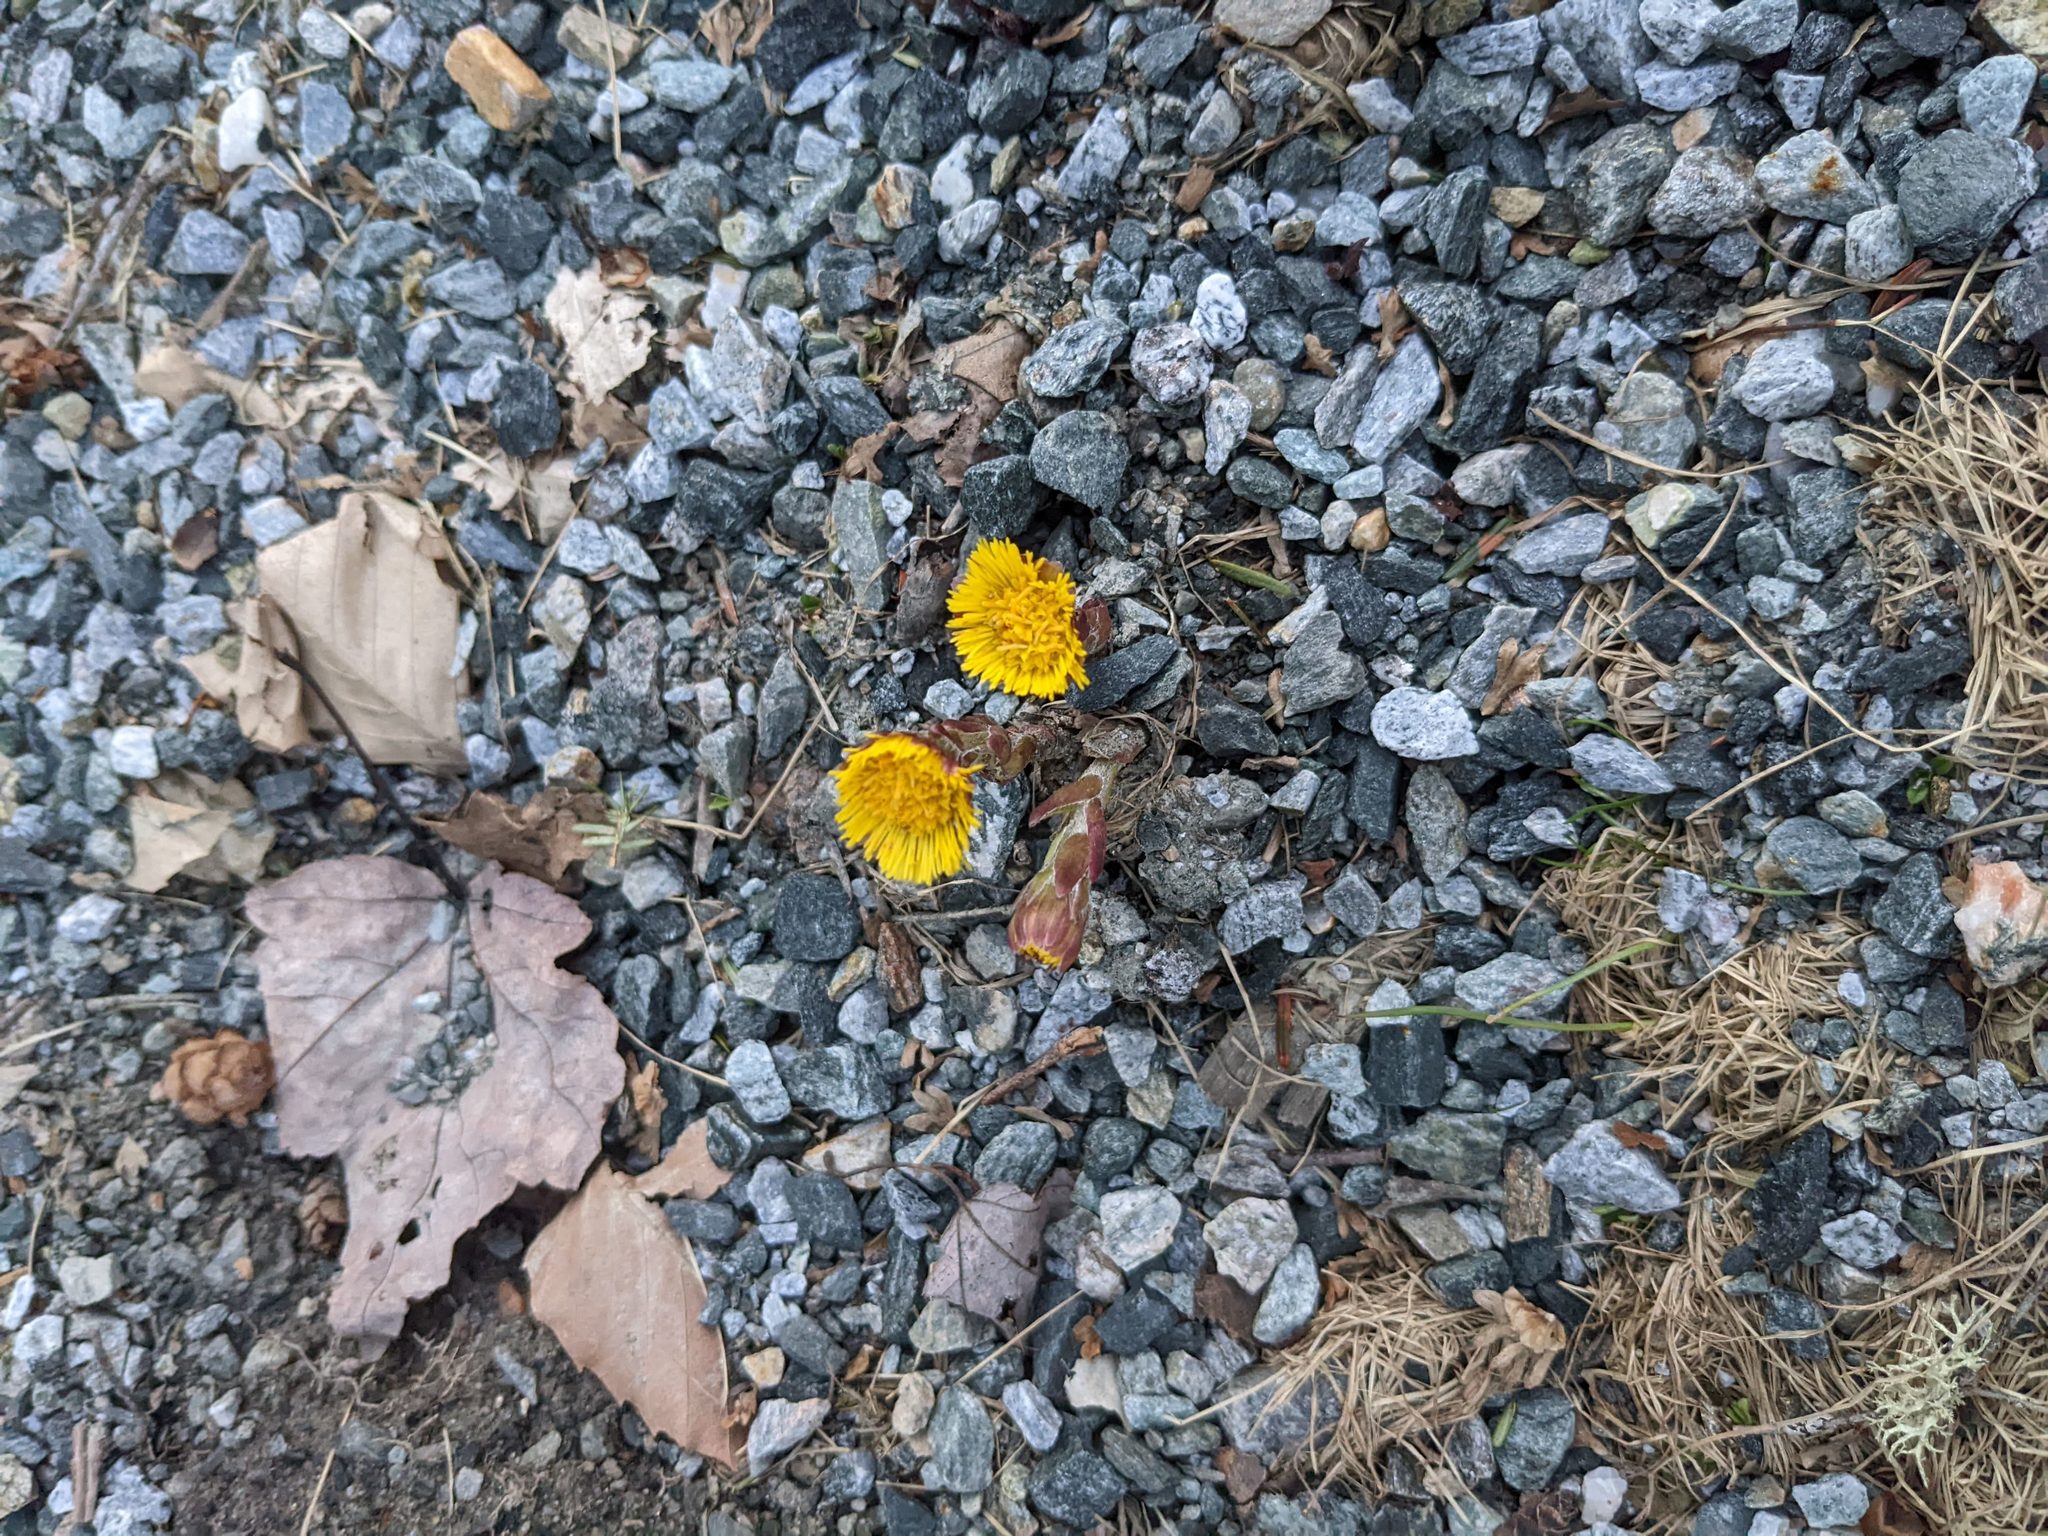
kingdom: Plantae
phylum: Tracheophyta
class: Magnoliopsida
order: Asterales
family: Asteraceae
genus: Tussilago
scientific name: Tussilago farfara
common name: Coltsfoot
